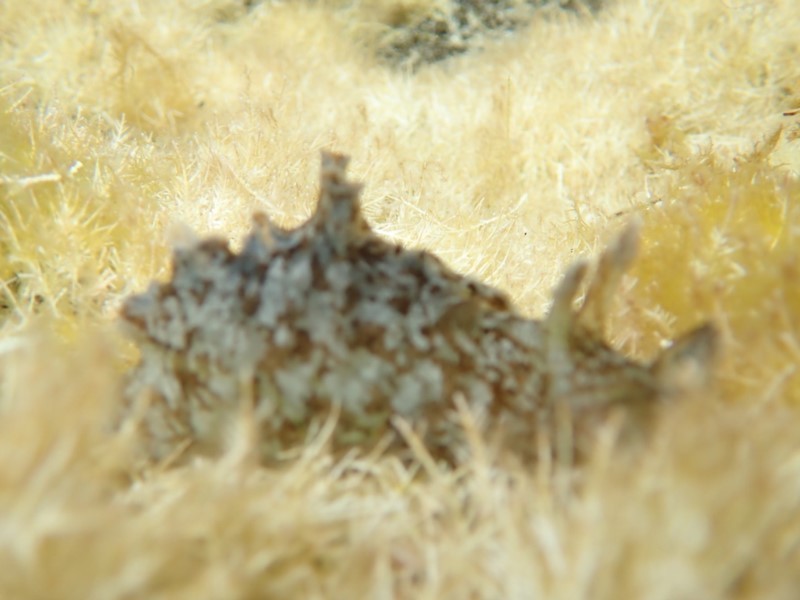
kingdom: Animalia
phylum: Mollusca
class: Gastropoda
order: Aplysiida
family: Aplysiidae
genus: Aplysia
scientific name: Aplysia sydneyensis
